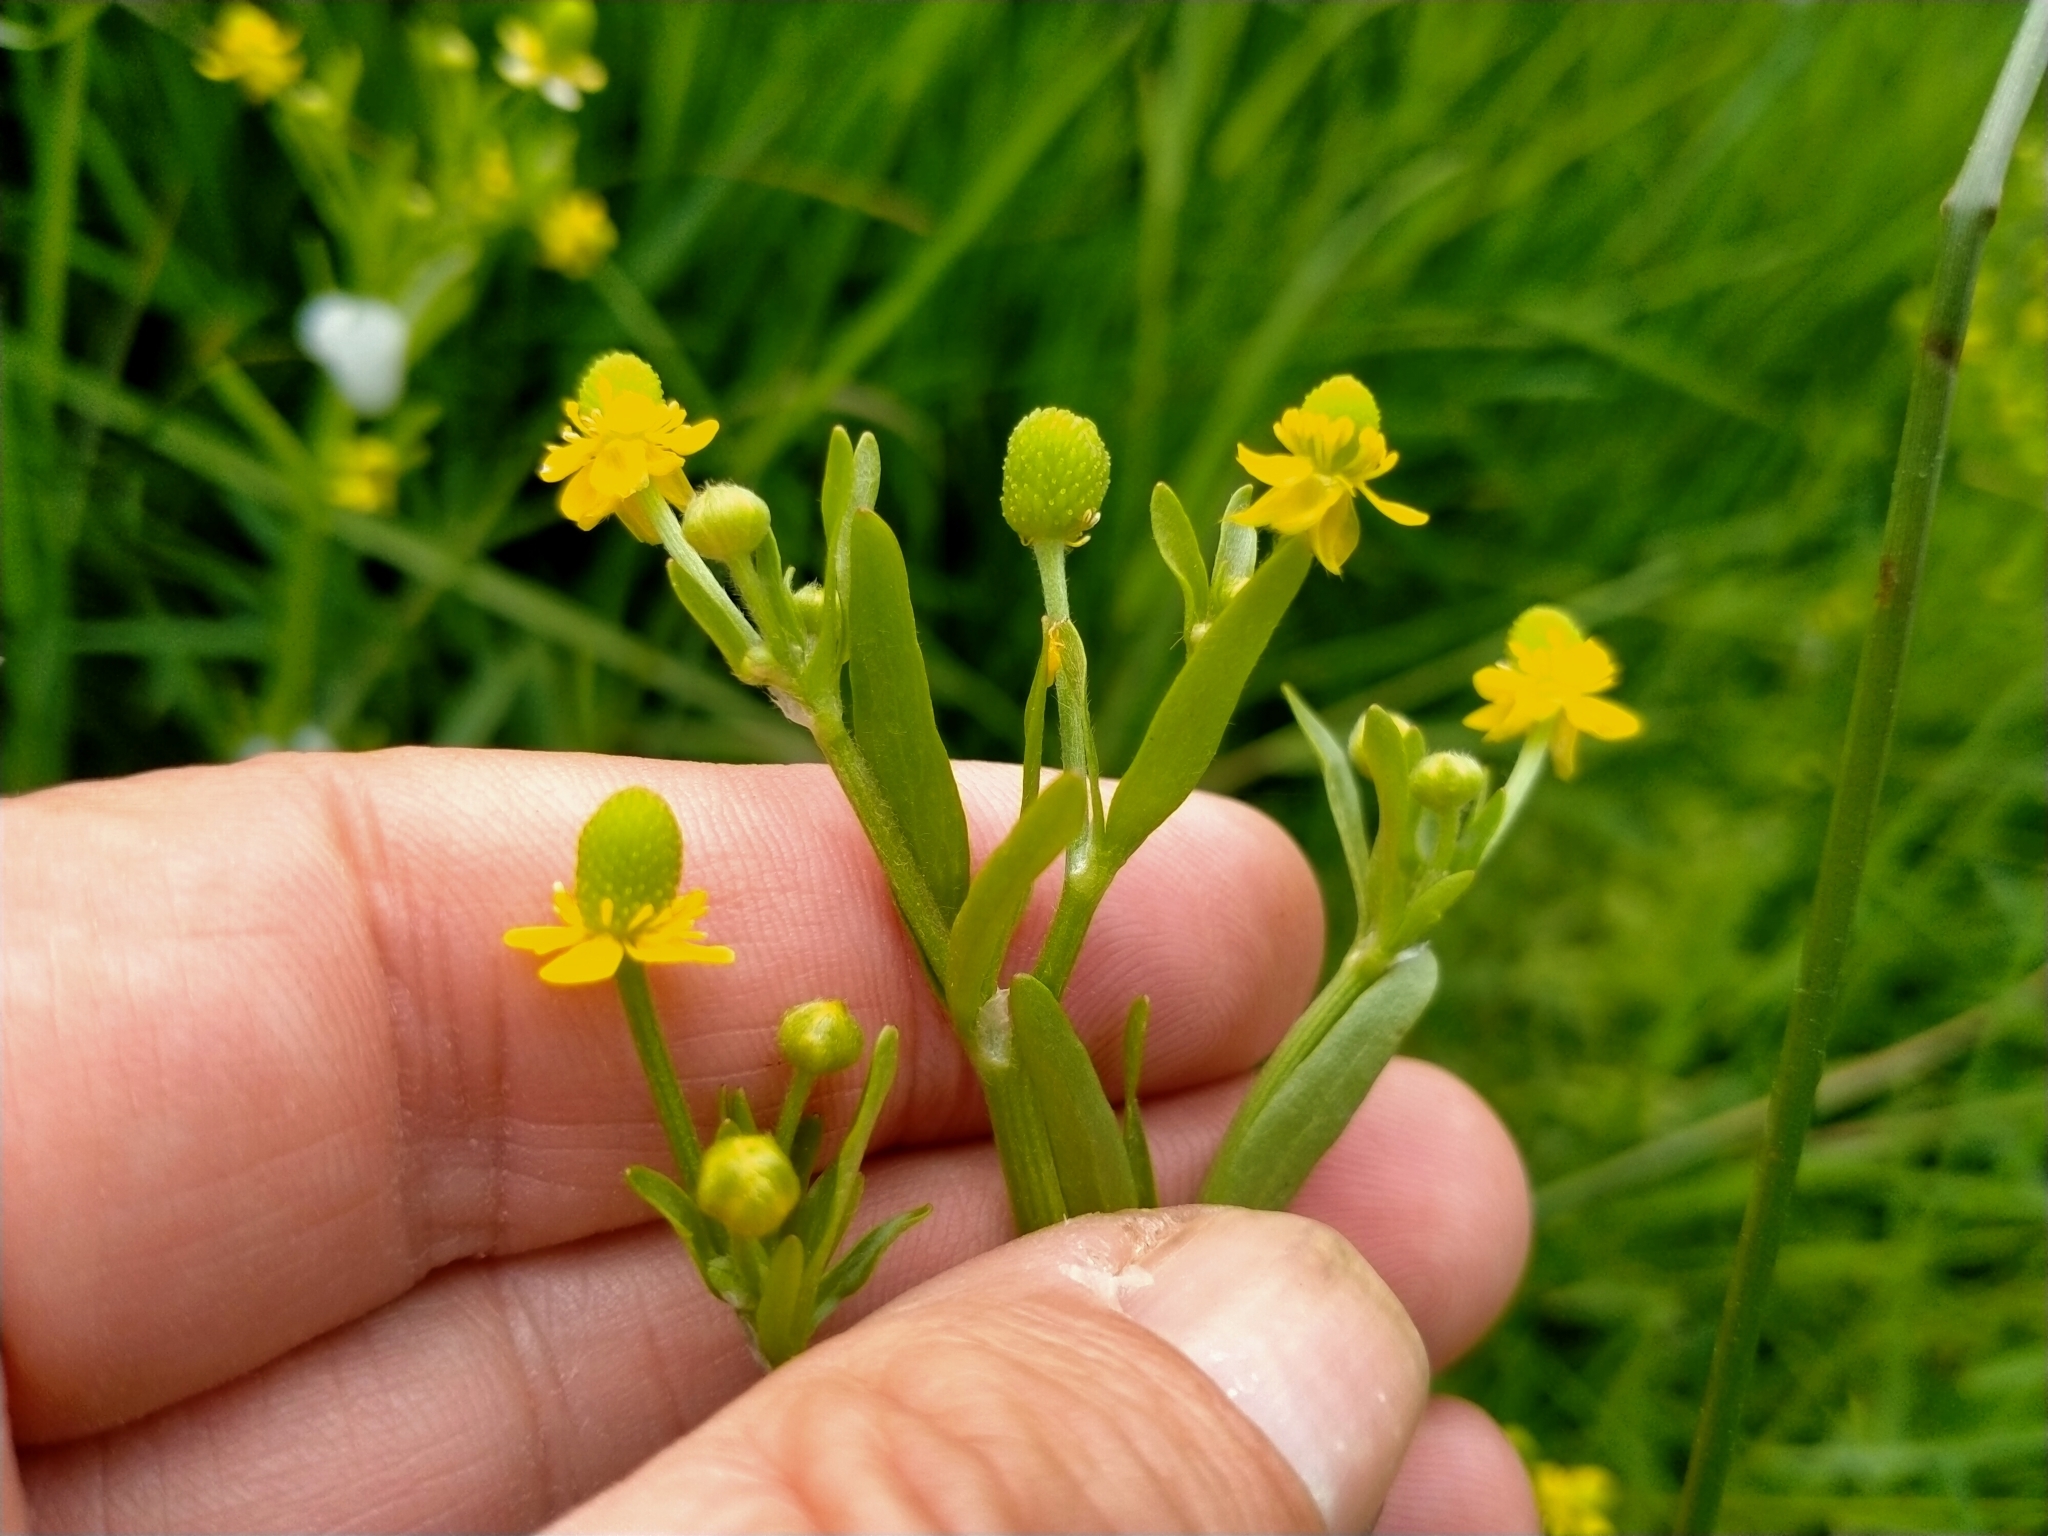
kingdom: Plantae
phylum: Tracheophyta
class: Magnoliopsida
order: Ranunculales
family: Ranunculaceae
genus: Ranunculus
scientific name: Ranunculus sceleratus
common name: Celery-leaved buttercup
